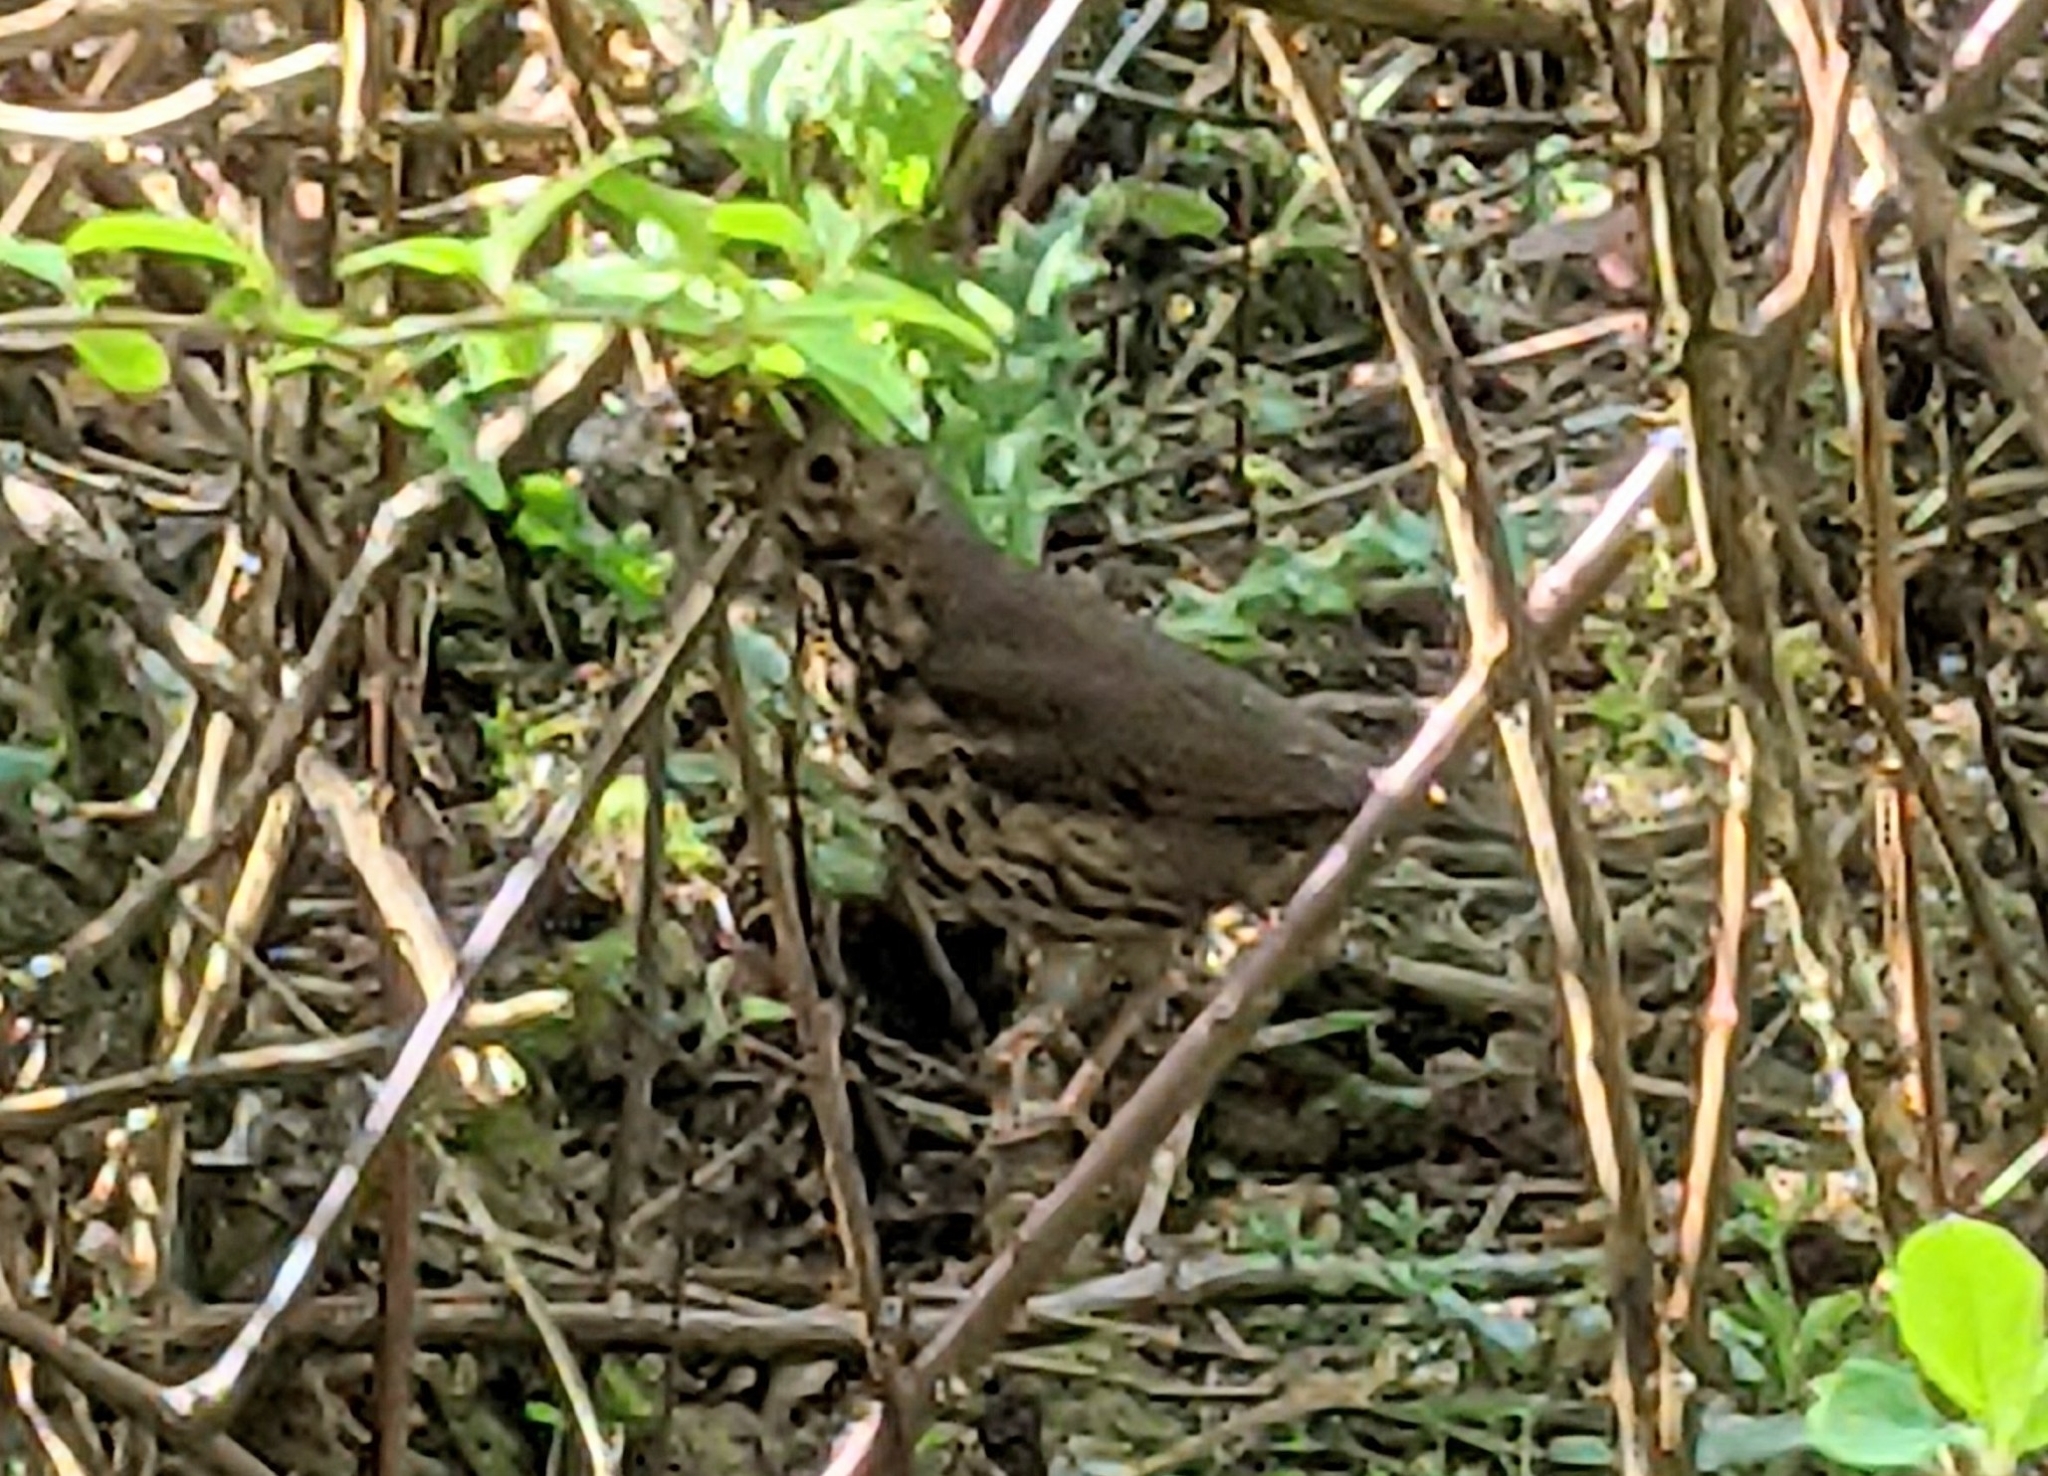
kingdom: Animalia
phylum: Chordata
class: Aves
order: Passeriformes
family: Turdidae
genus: Turdus
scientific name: Turdus philomelos
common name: Song thrush
